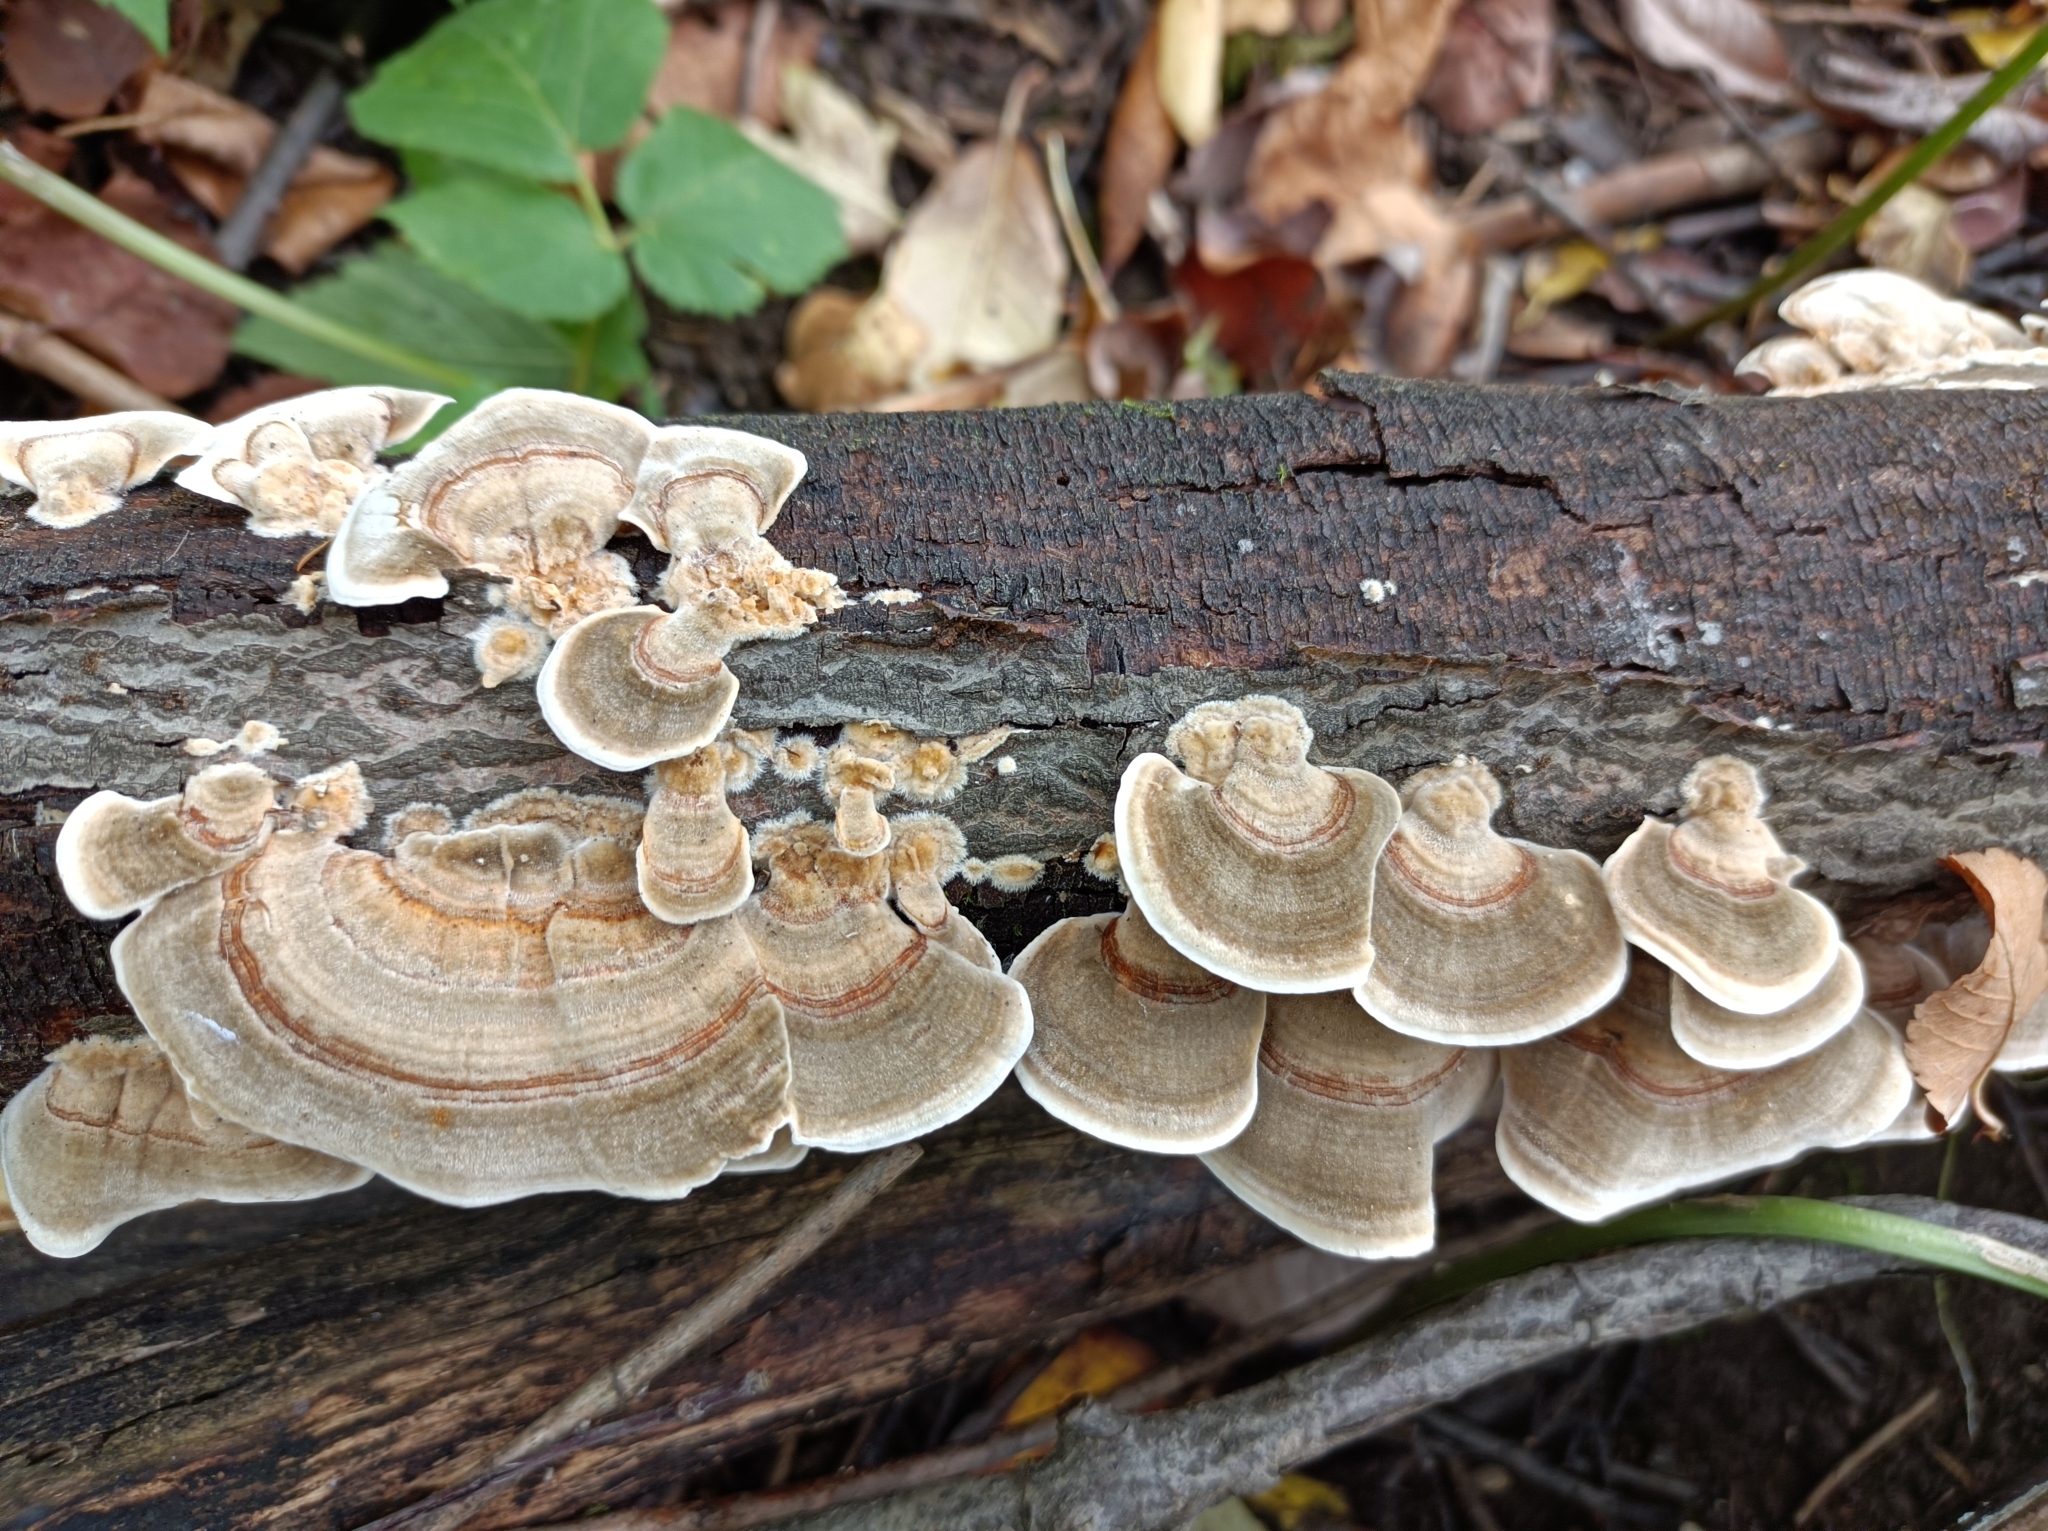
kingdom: Fungi
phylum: Basidiomycota
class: Agaricomycetes
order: Polyporales
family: Polyporaceae
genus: Trametes
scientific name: Trametes versicolor
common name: Turkeytail
